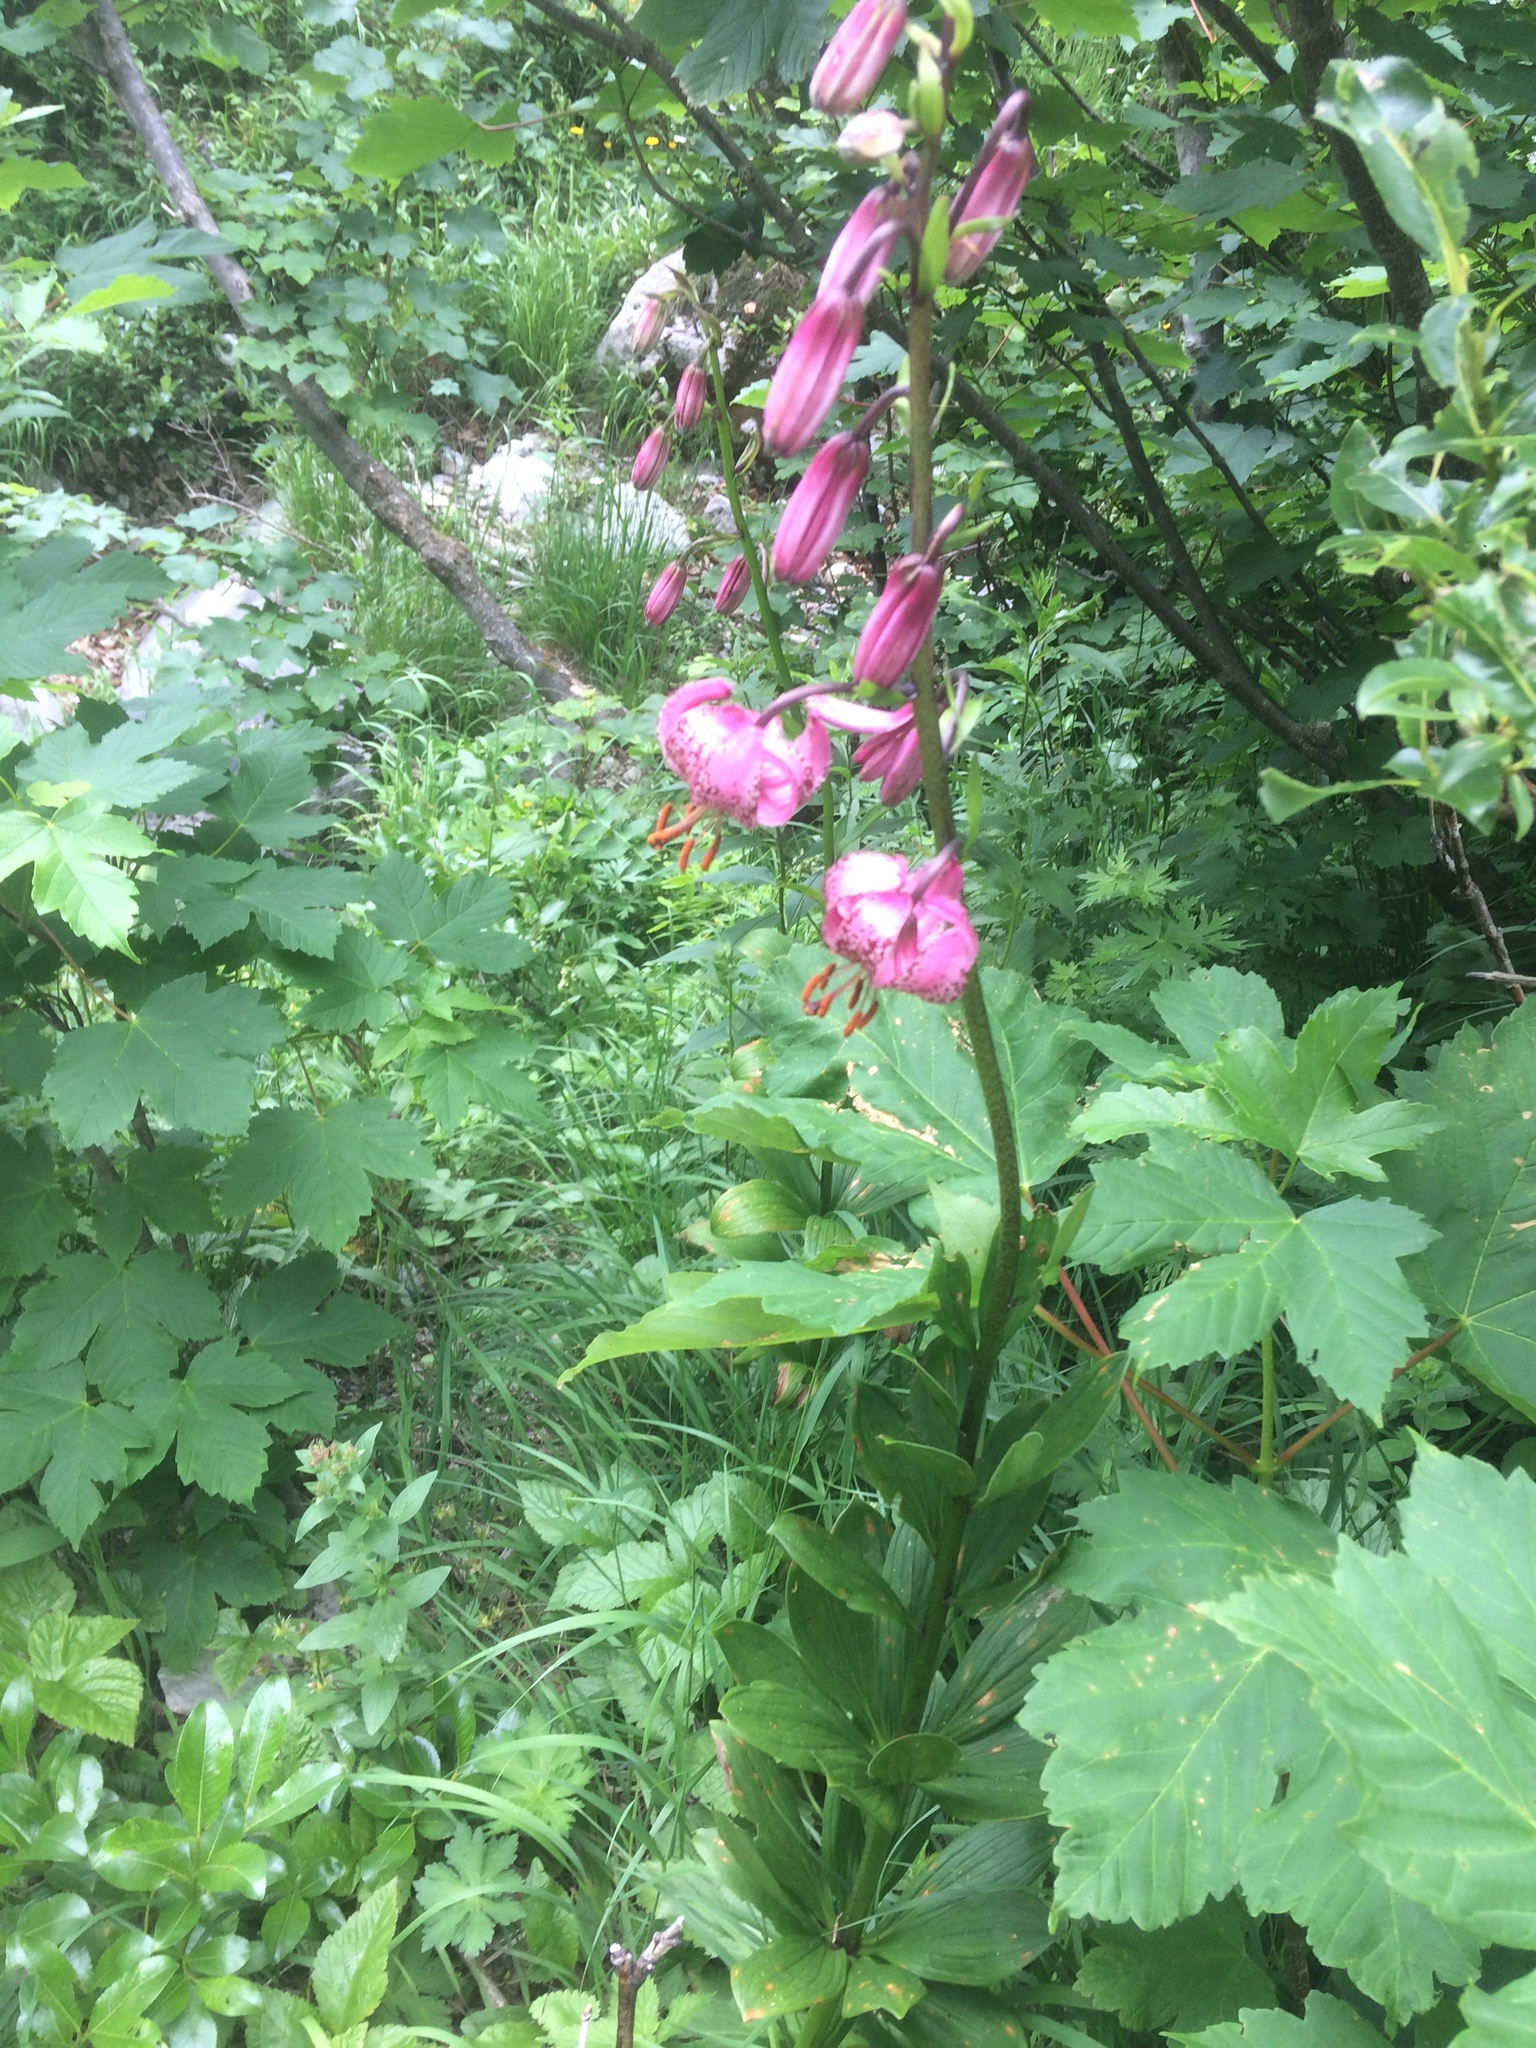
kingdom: Plantae
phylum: Tracheophyta
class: Liliopsida
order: Liliales
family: Liliaceae
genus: Lilium
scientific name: Lilium martagon
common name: Martagon lily
